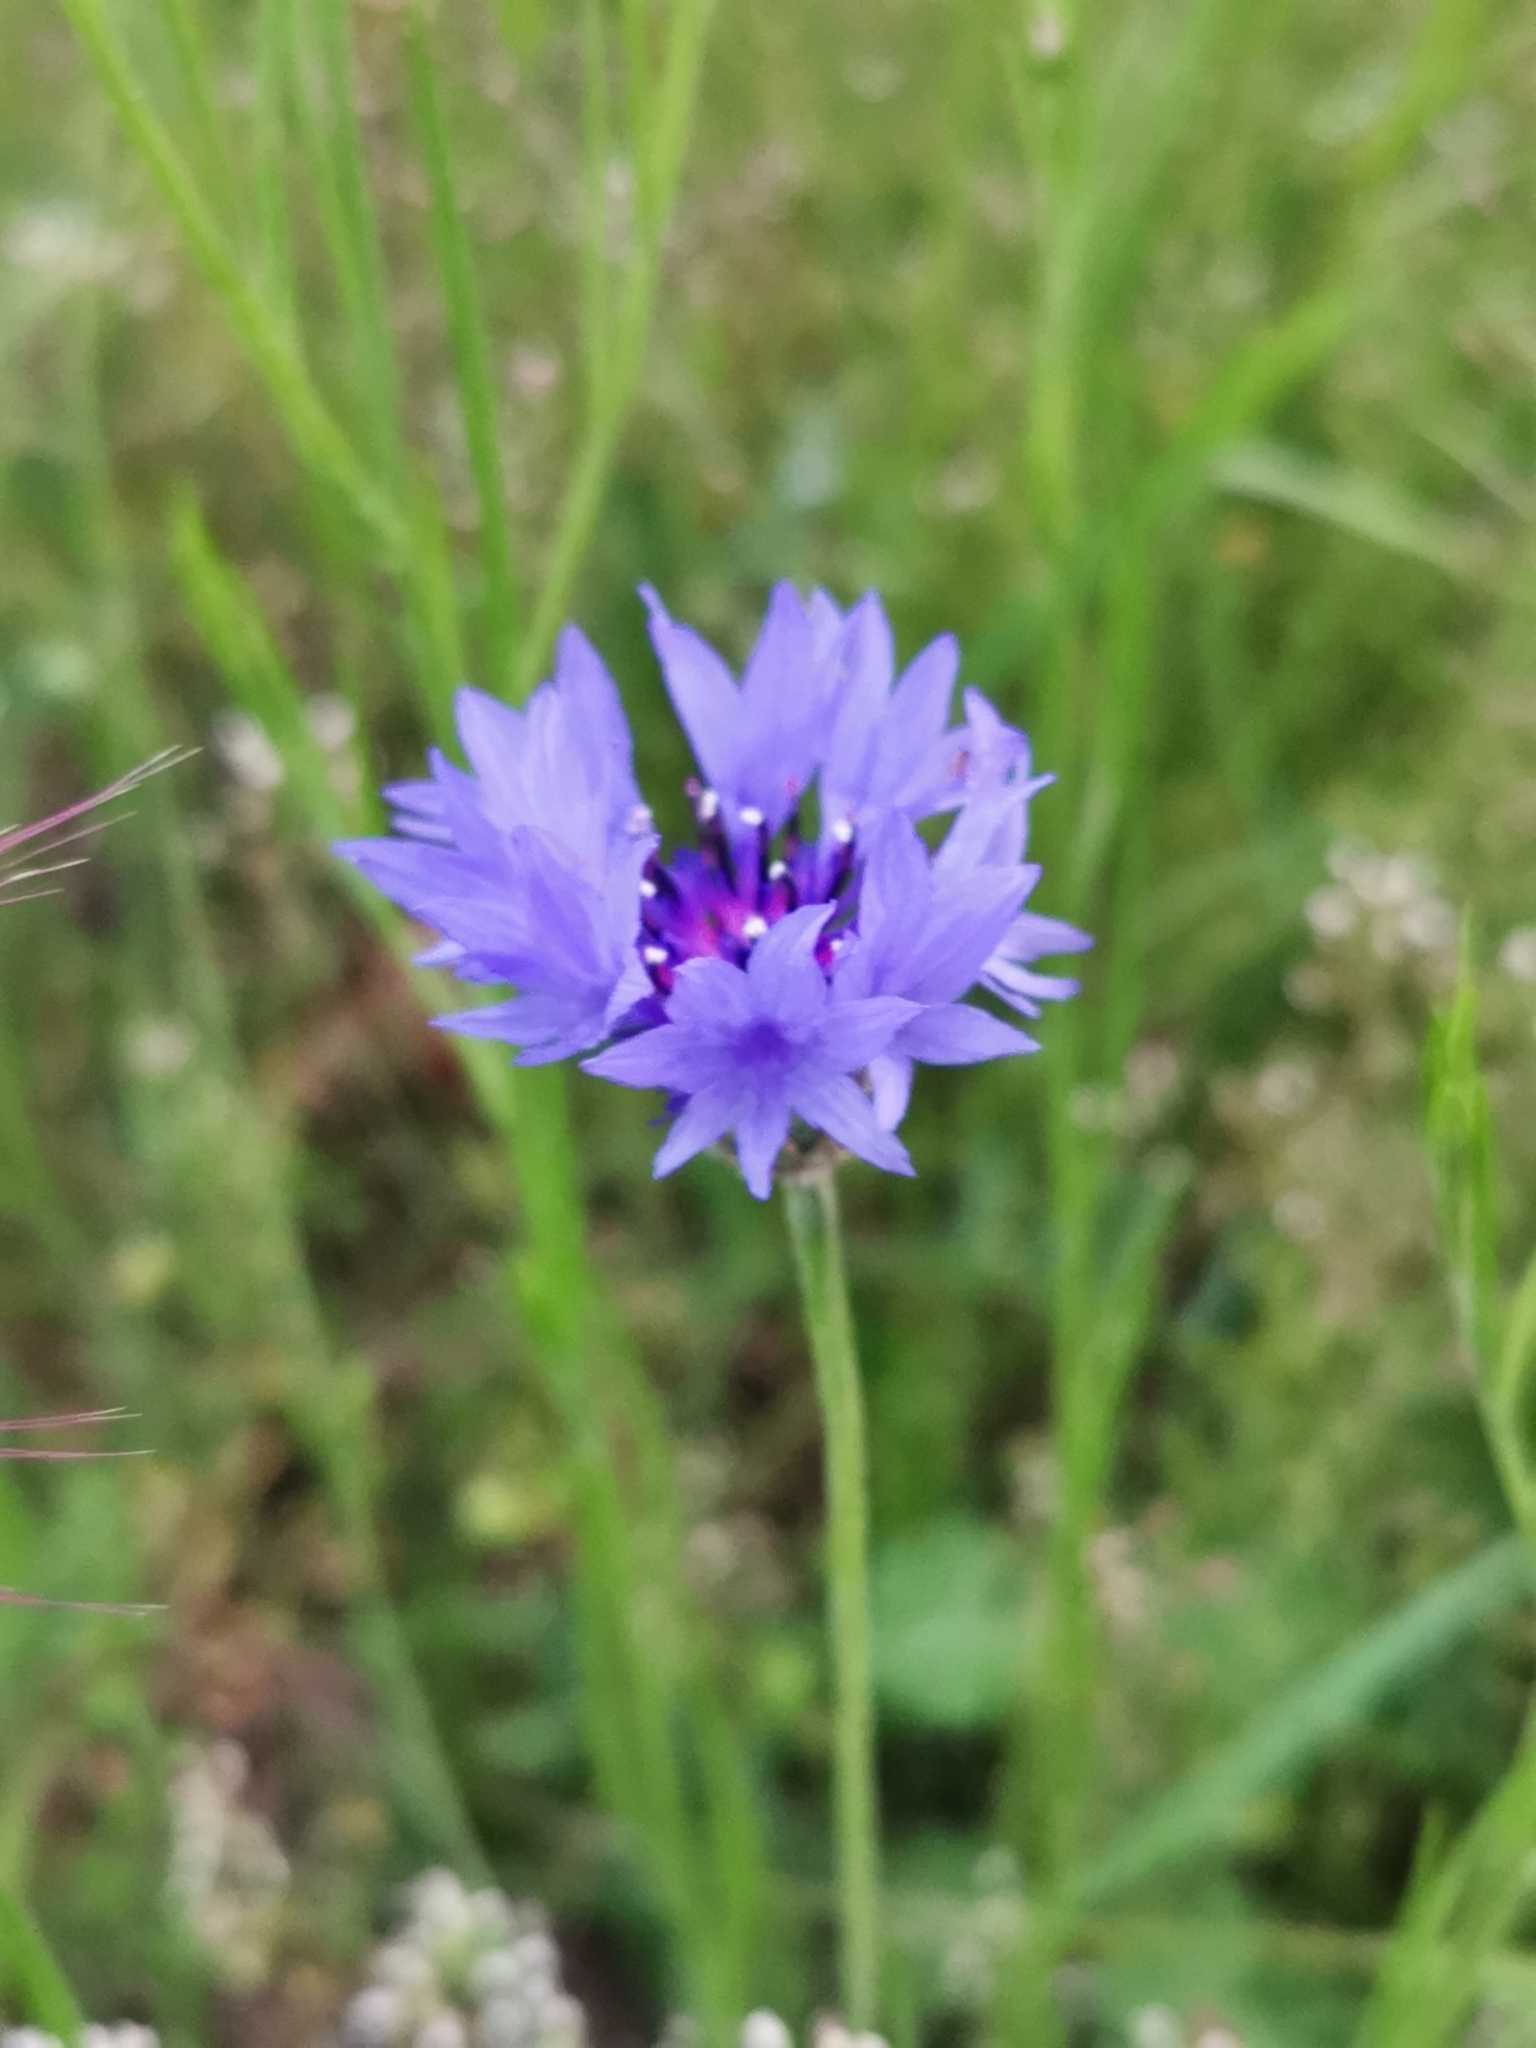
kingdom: Plantae
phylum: Tracheophyta
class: Magnoliopsida
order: Asterales
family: Asteraceae
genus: Centaurea
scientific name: Centaurea cyanus
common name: Cornflower
